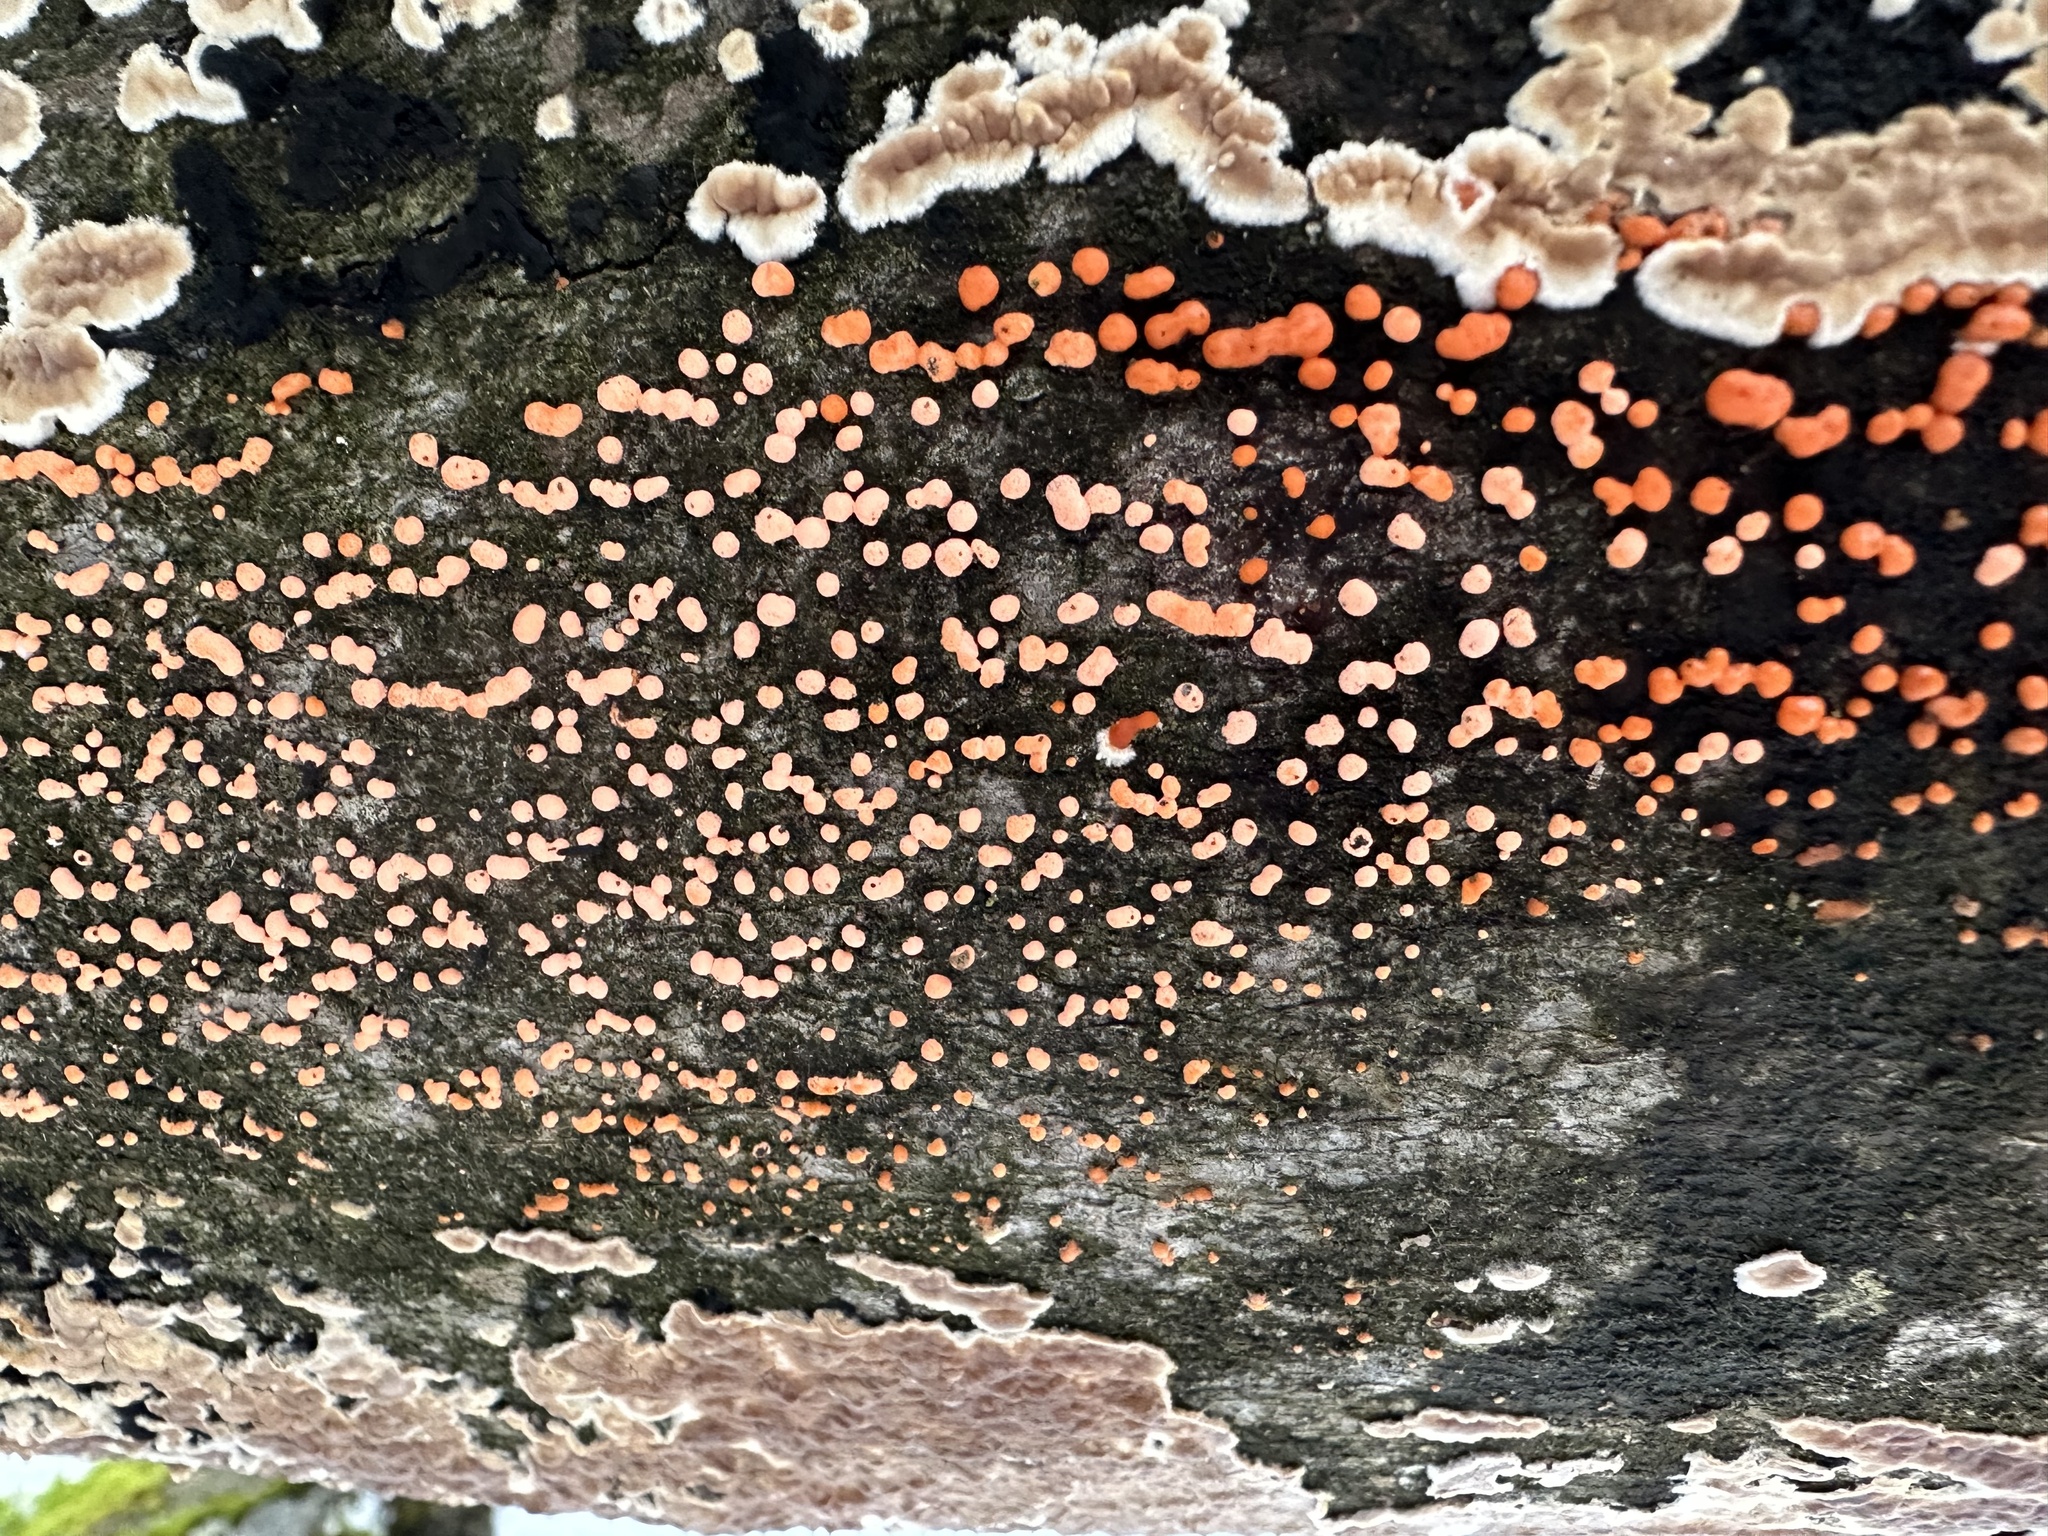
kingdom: Fungi
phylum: Ascomycota
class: Sordariomycetes
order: Hypocreales
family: Nectriaceae
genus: Nectria
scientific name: Nectria cinnabarina
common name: Coral spot
